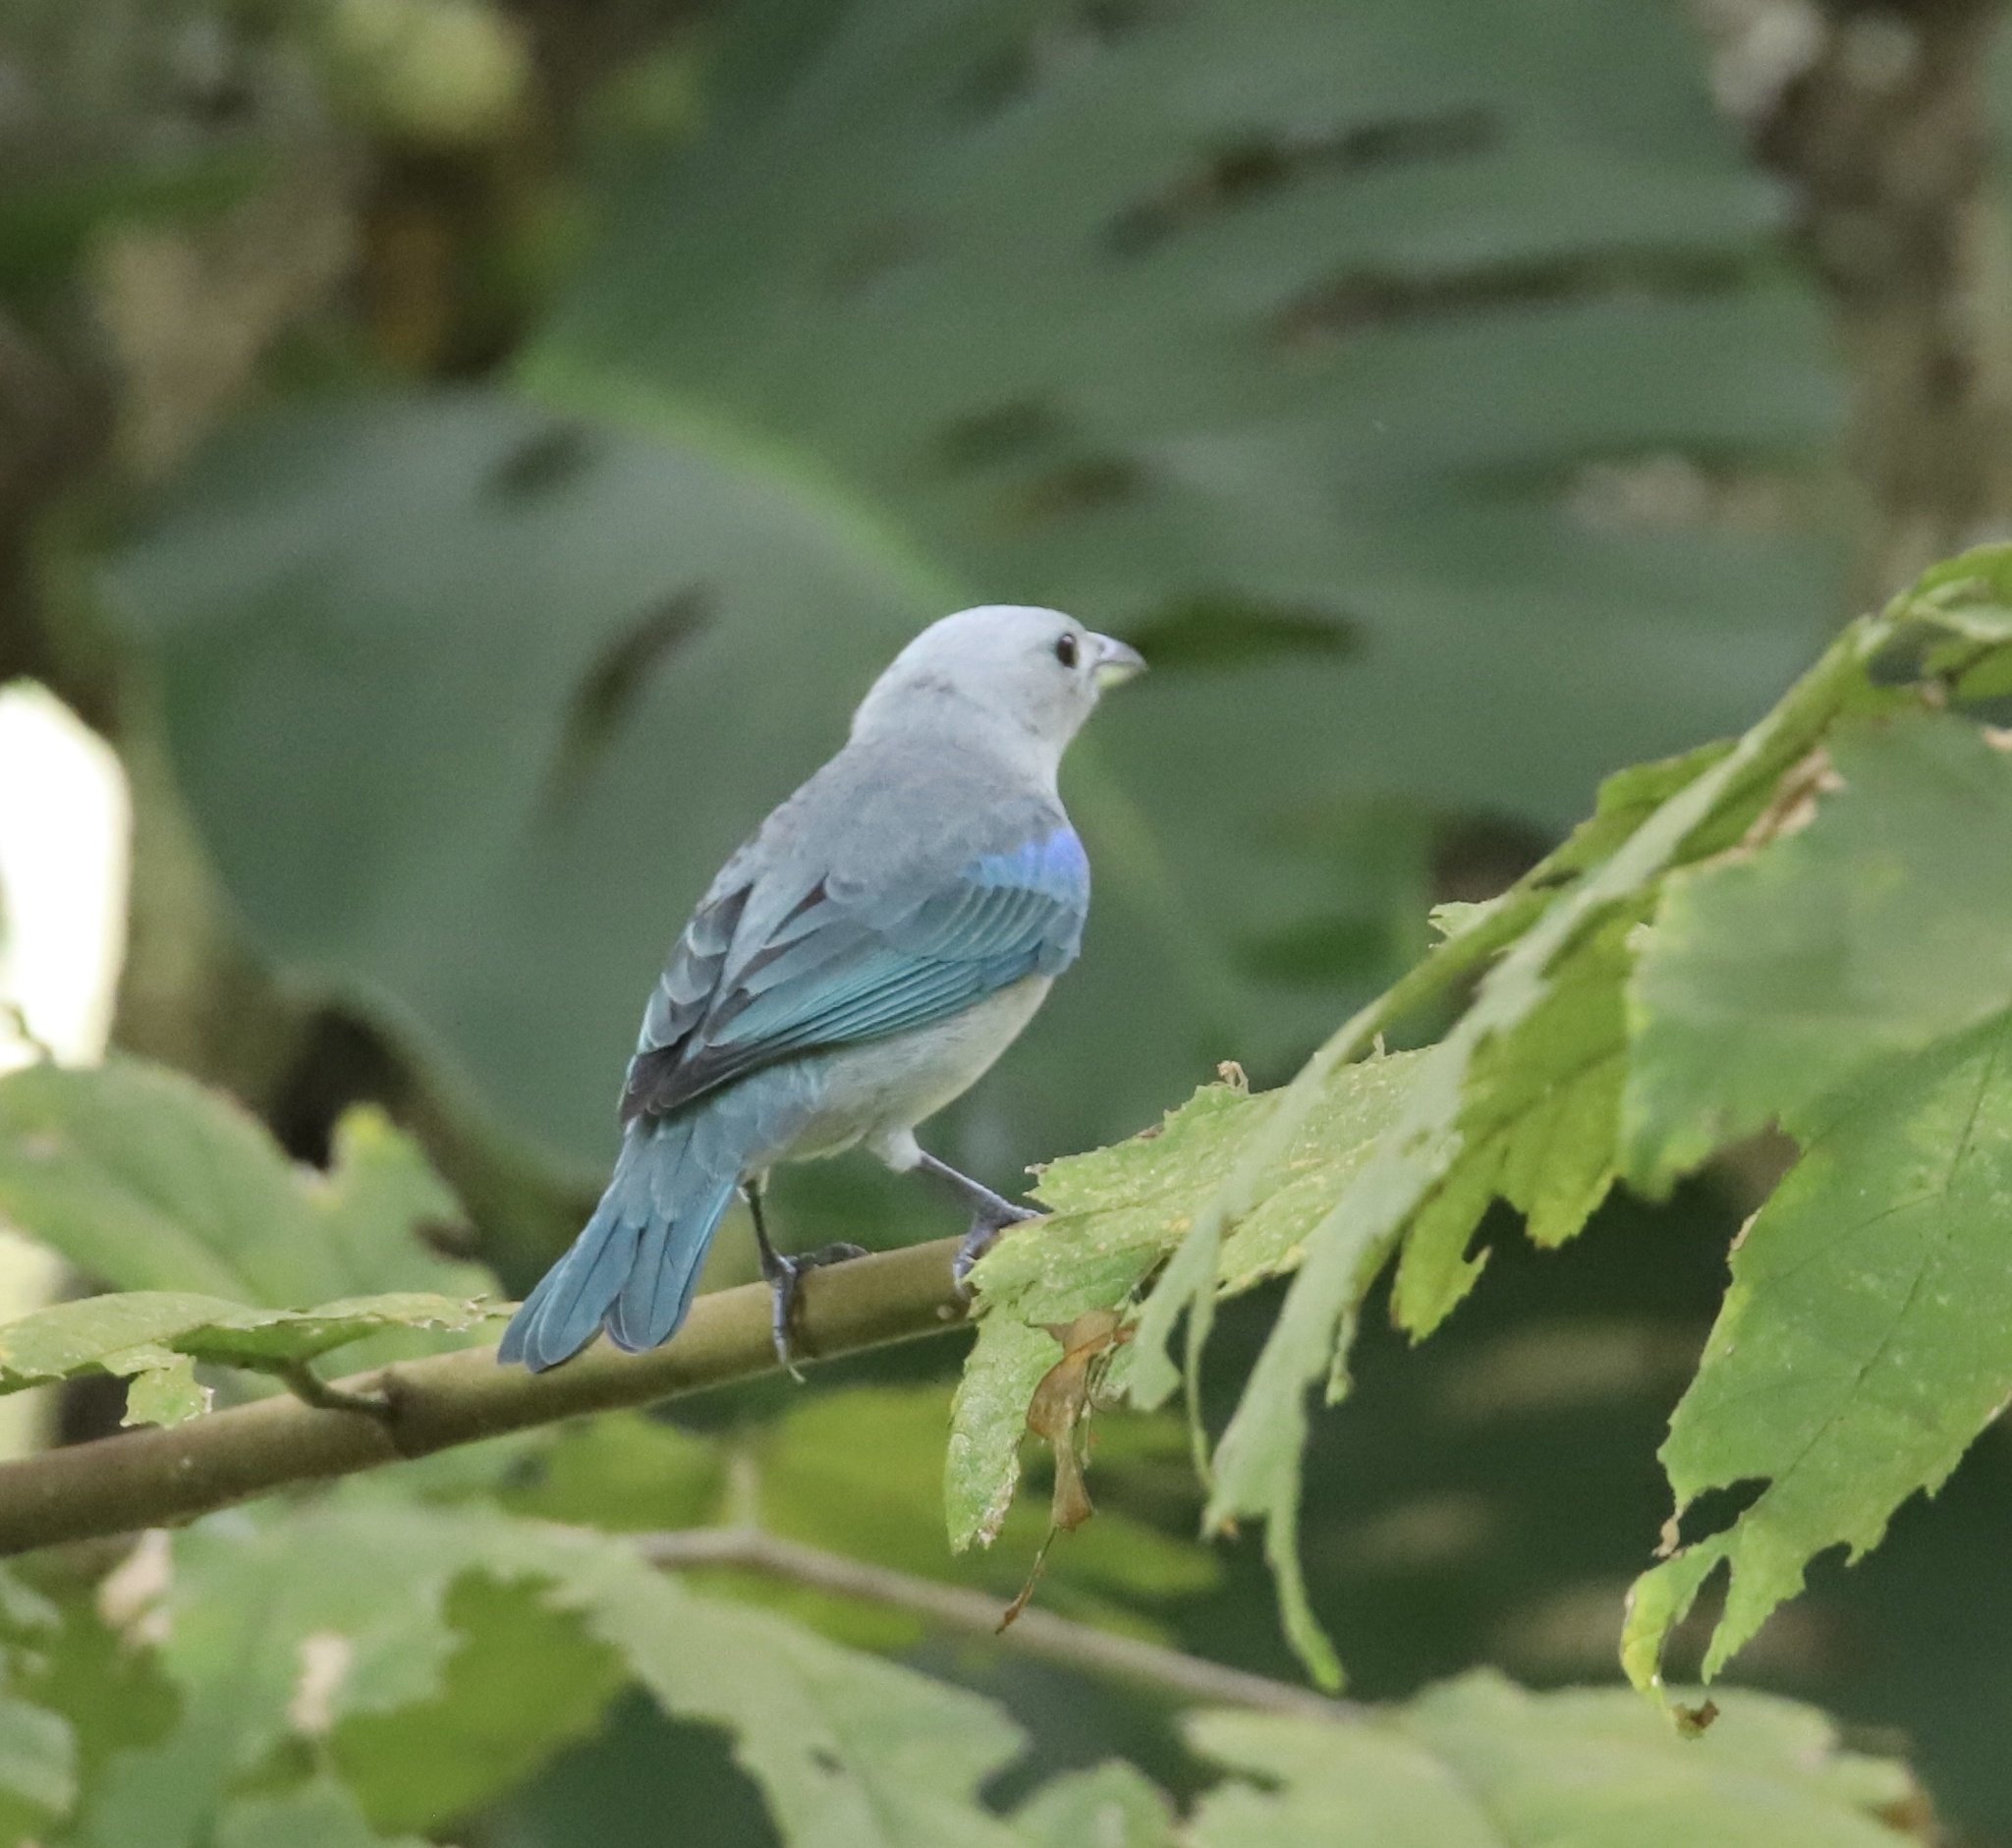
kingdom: Animalia
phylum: Chordata
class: Aves
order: Passeriformes
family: Thraupidae
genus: Thraupis
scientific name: Thraupis episcopus
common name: Blue-grey tanager
